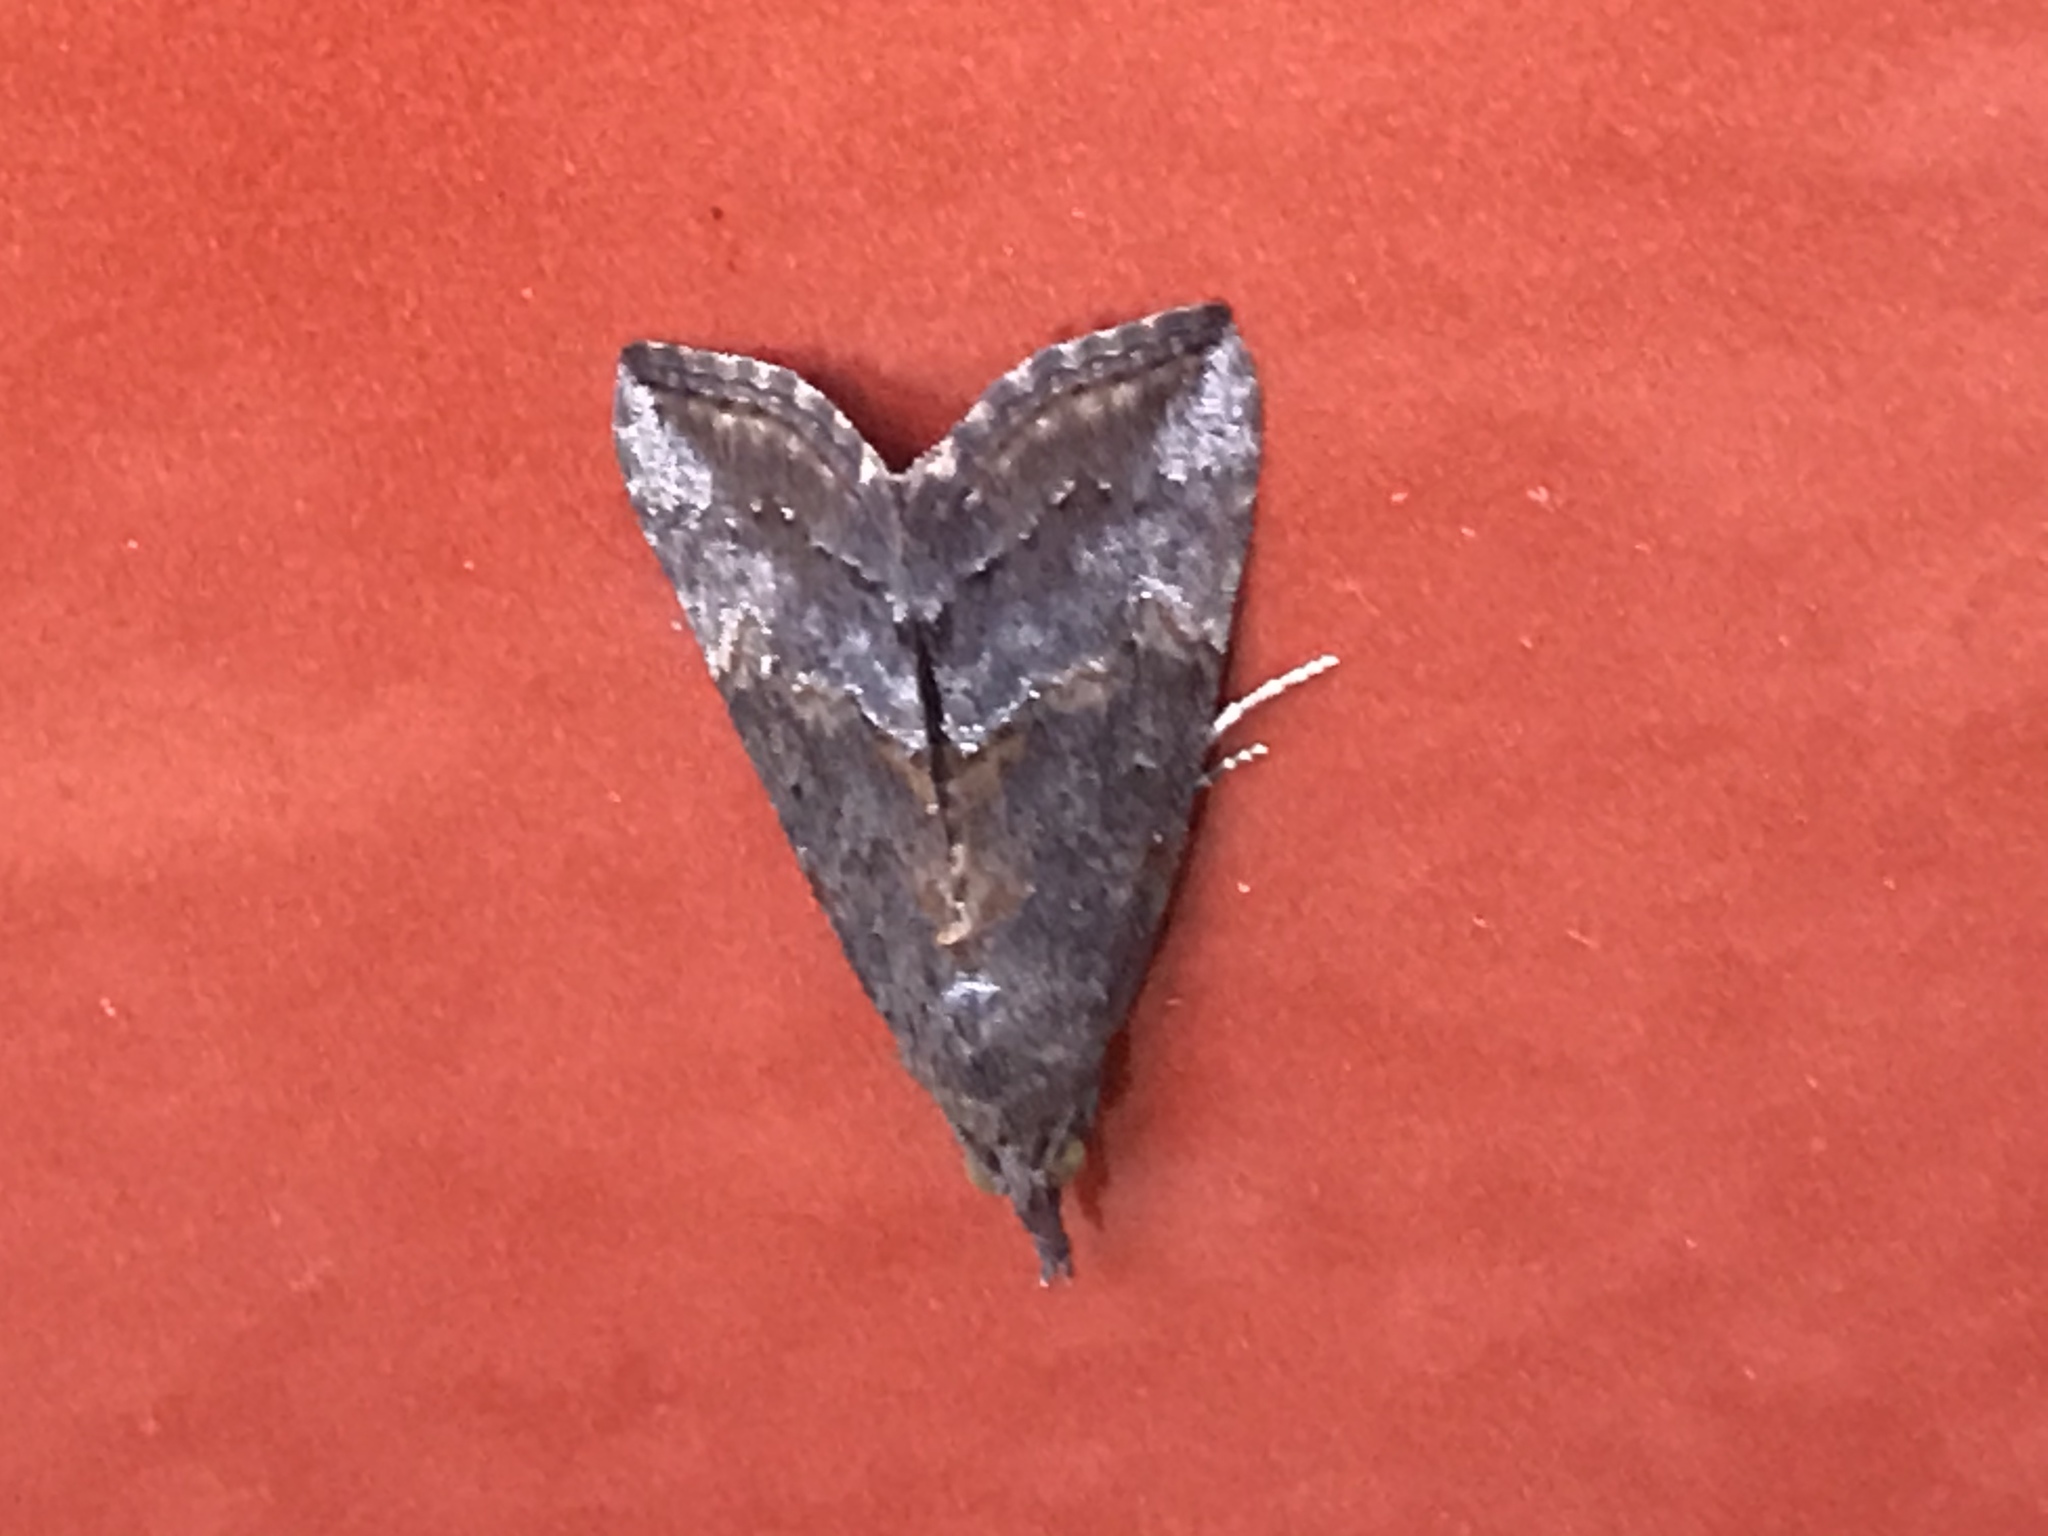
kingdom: Animalia
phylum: Arthropoda
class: Insecta
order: Lepidoptera
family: Erebidae
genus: Hypena
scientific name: Hypena scabra
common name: Green cloverworm
